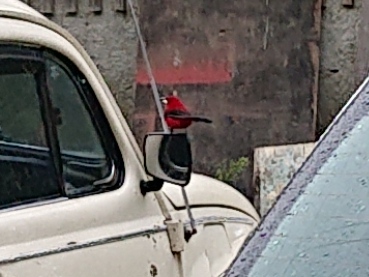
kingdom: Animalia
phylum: Chordata
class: Aves
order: Passeriformes
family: Thraupidae
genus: Ramphocelus
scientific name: Ramphocelus bresilia
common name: Brazilian tanager
